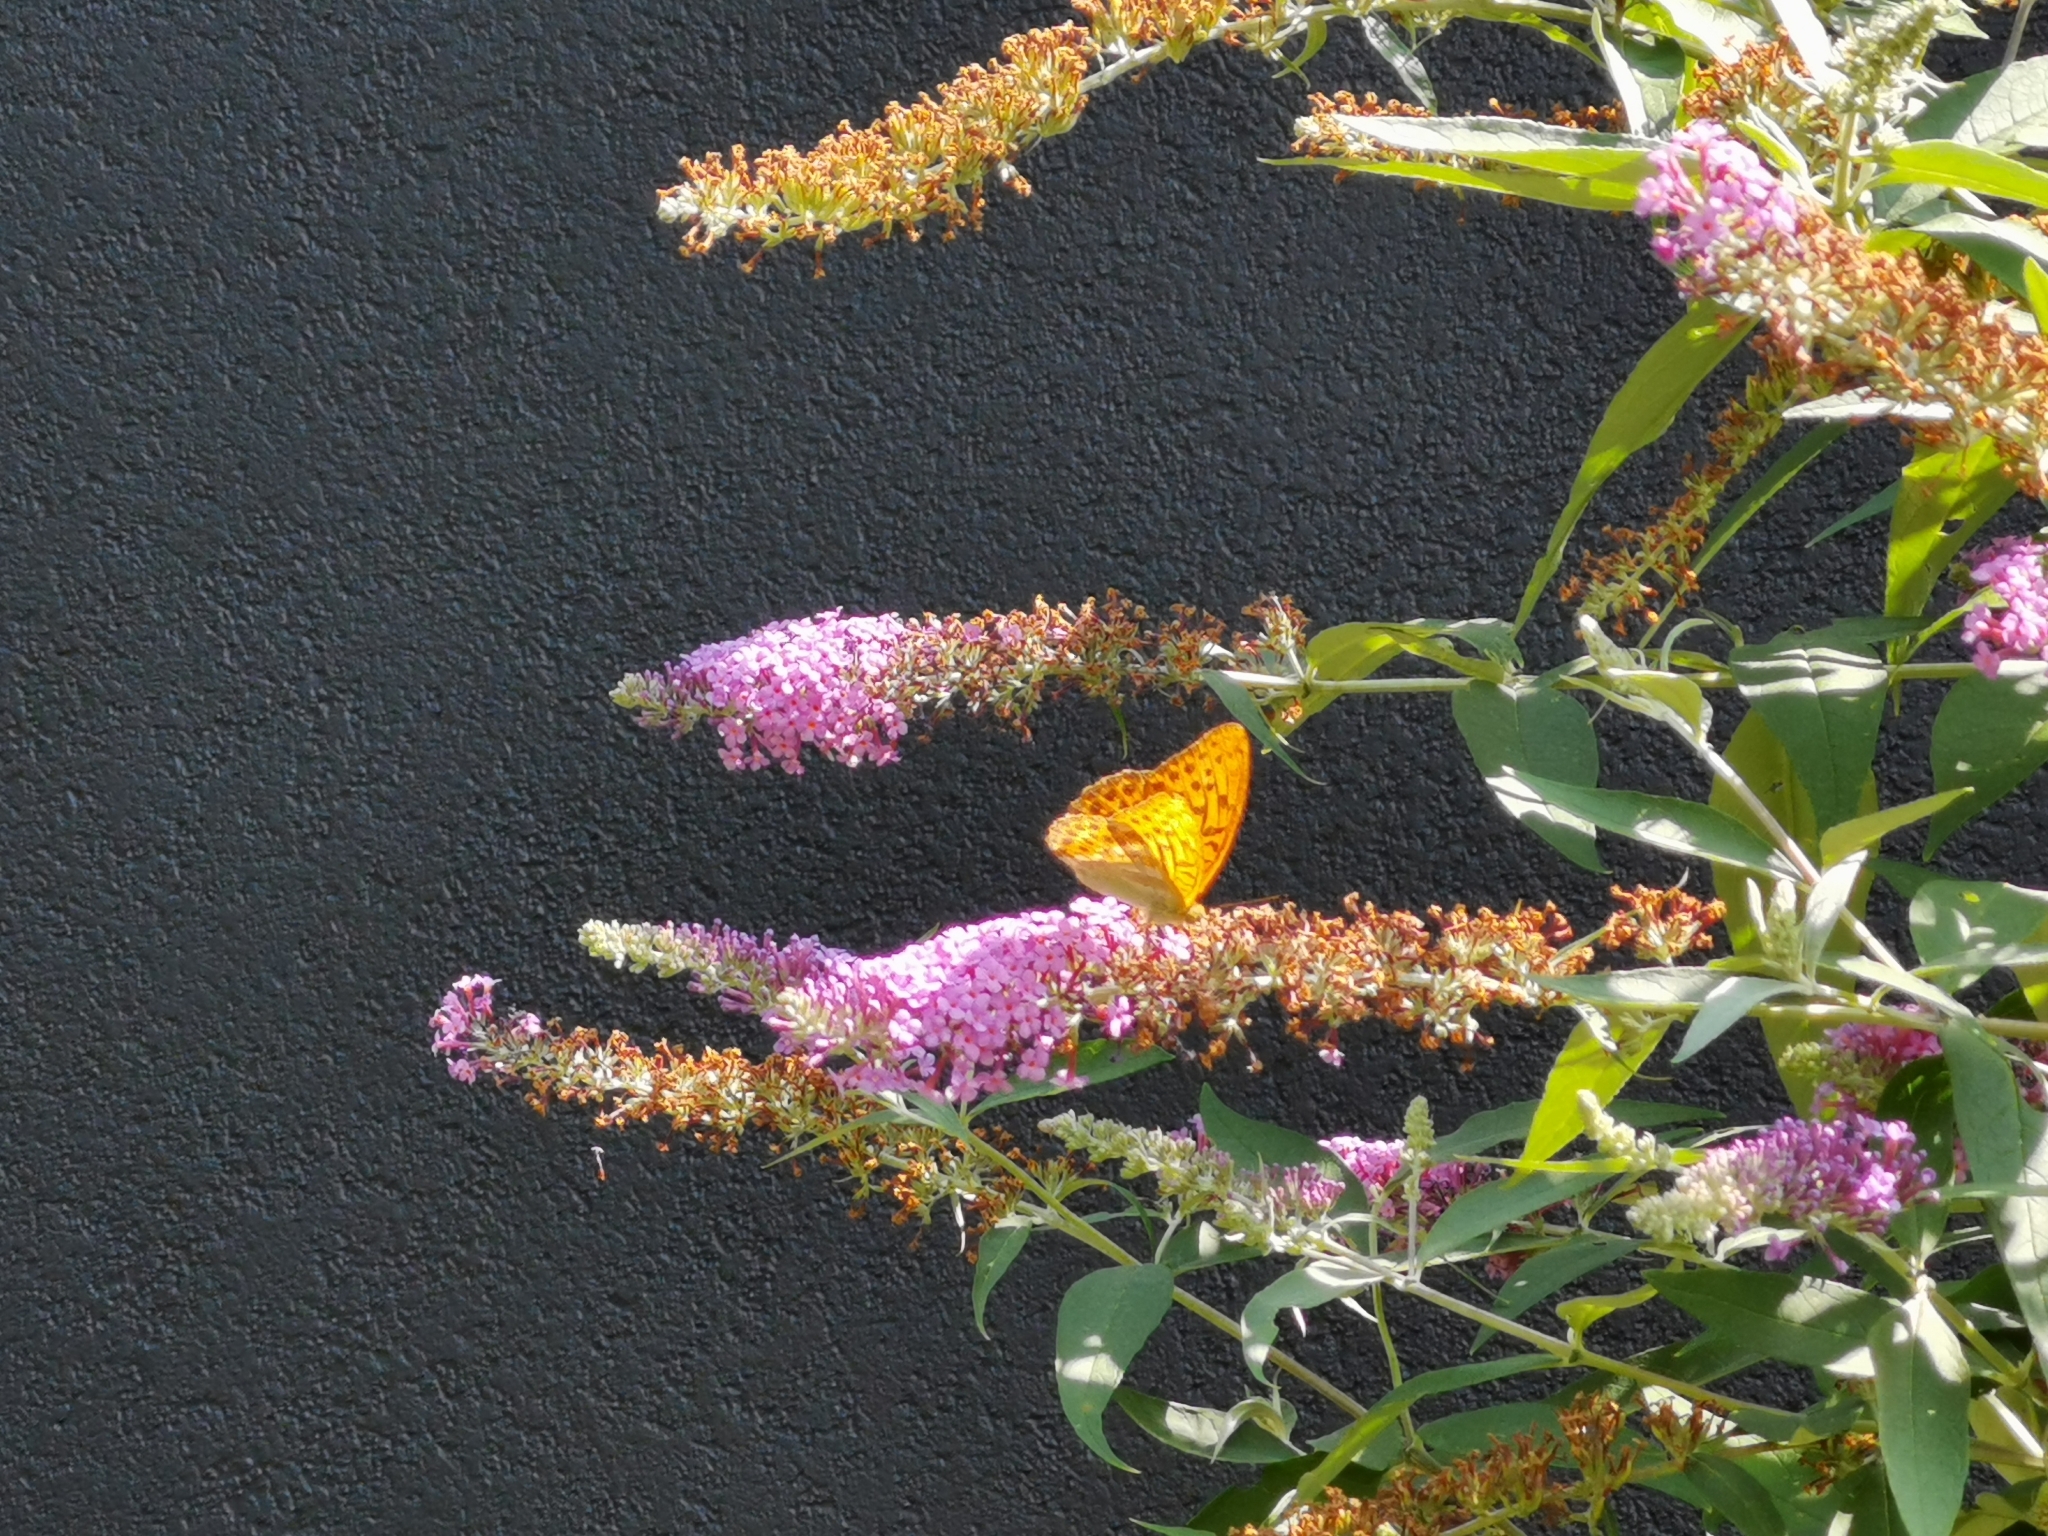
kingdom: Animalia
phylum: Arthropoda
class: Insecta
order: Lepidoptera
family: Nymphalidae
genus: Argynnis
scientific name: Argynnis paphia
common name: Silver-washed fritillary
